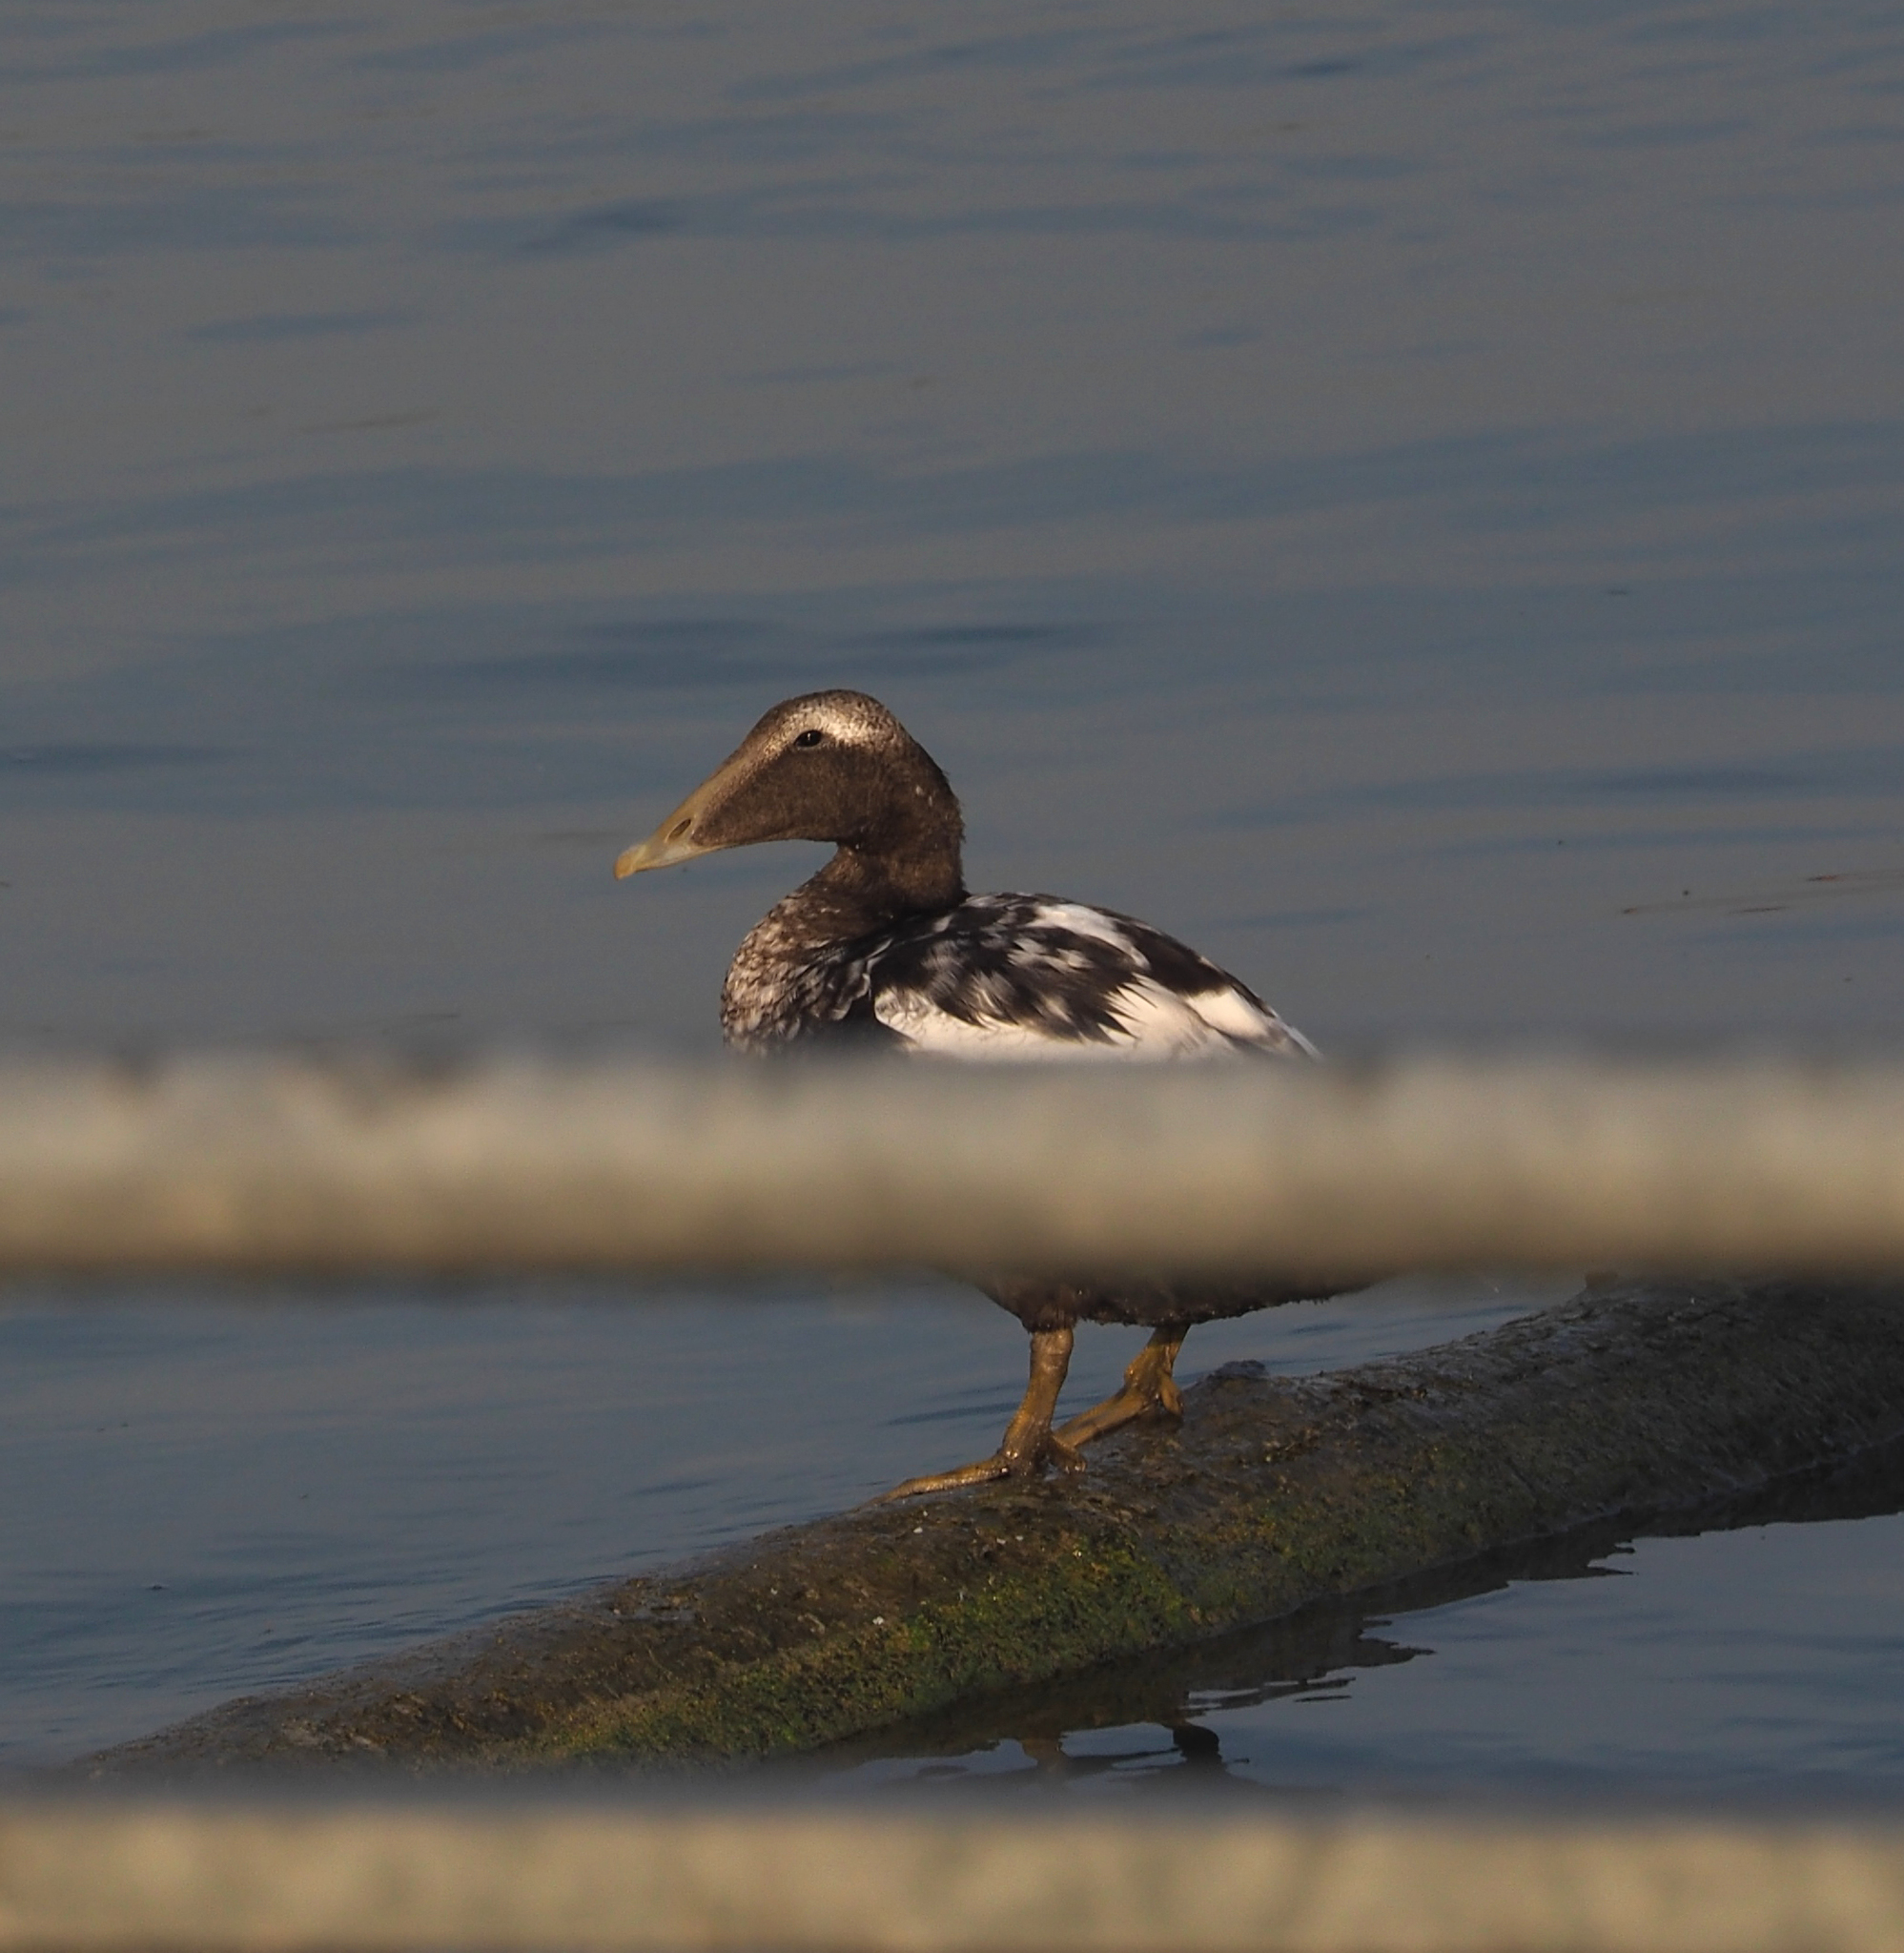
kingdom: Animalia
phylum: Chordata
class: Aves
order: Anseriformes
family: Anatidae
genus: Somateria
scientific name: Somateria mollissima
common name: Common eider
